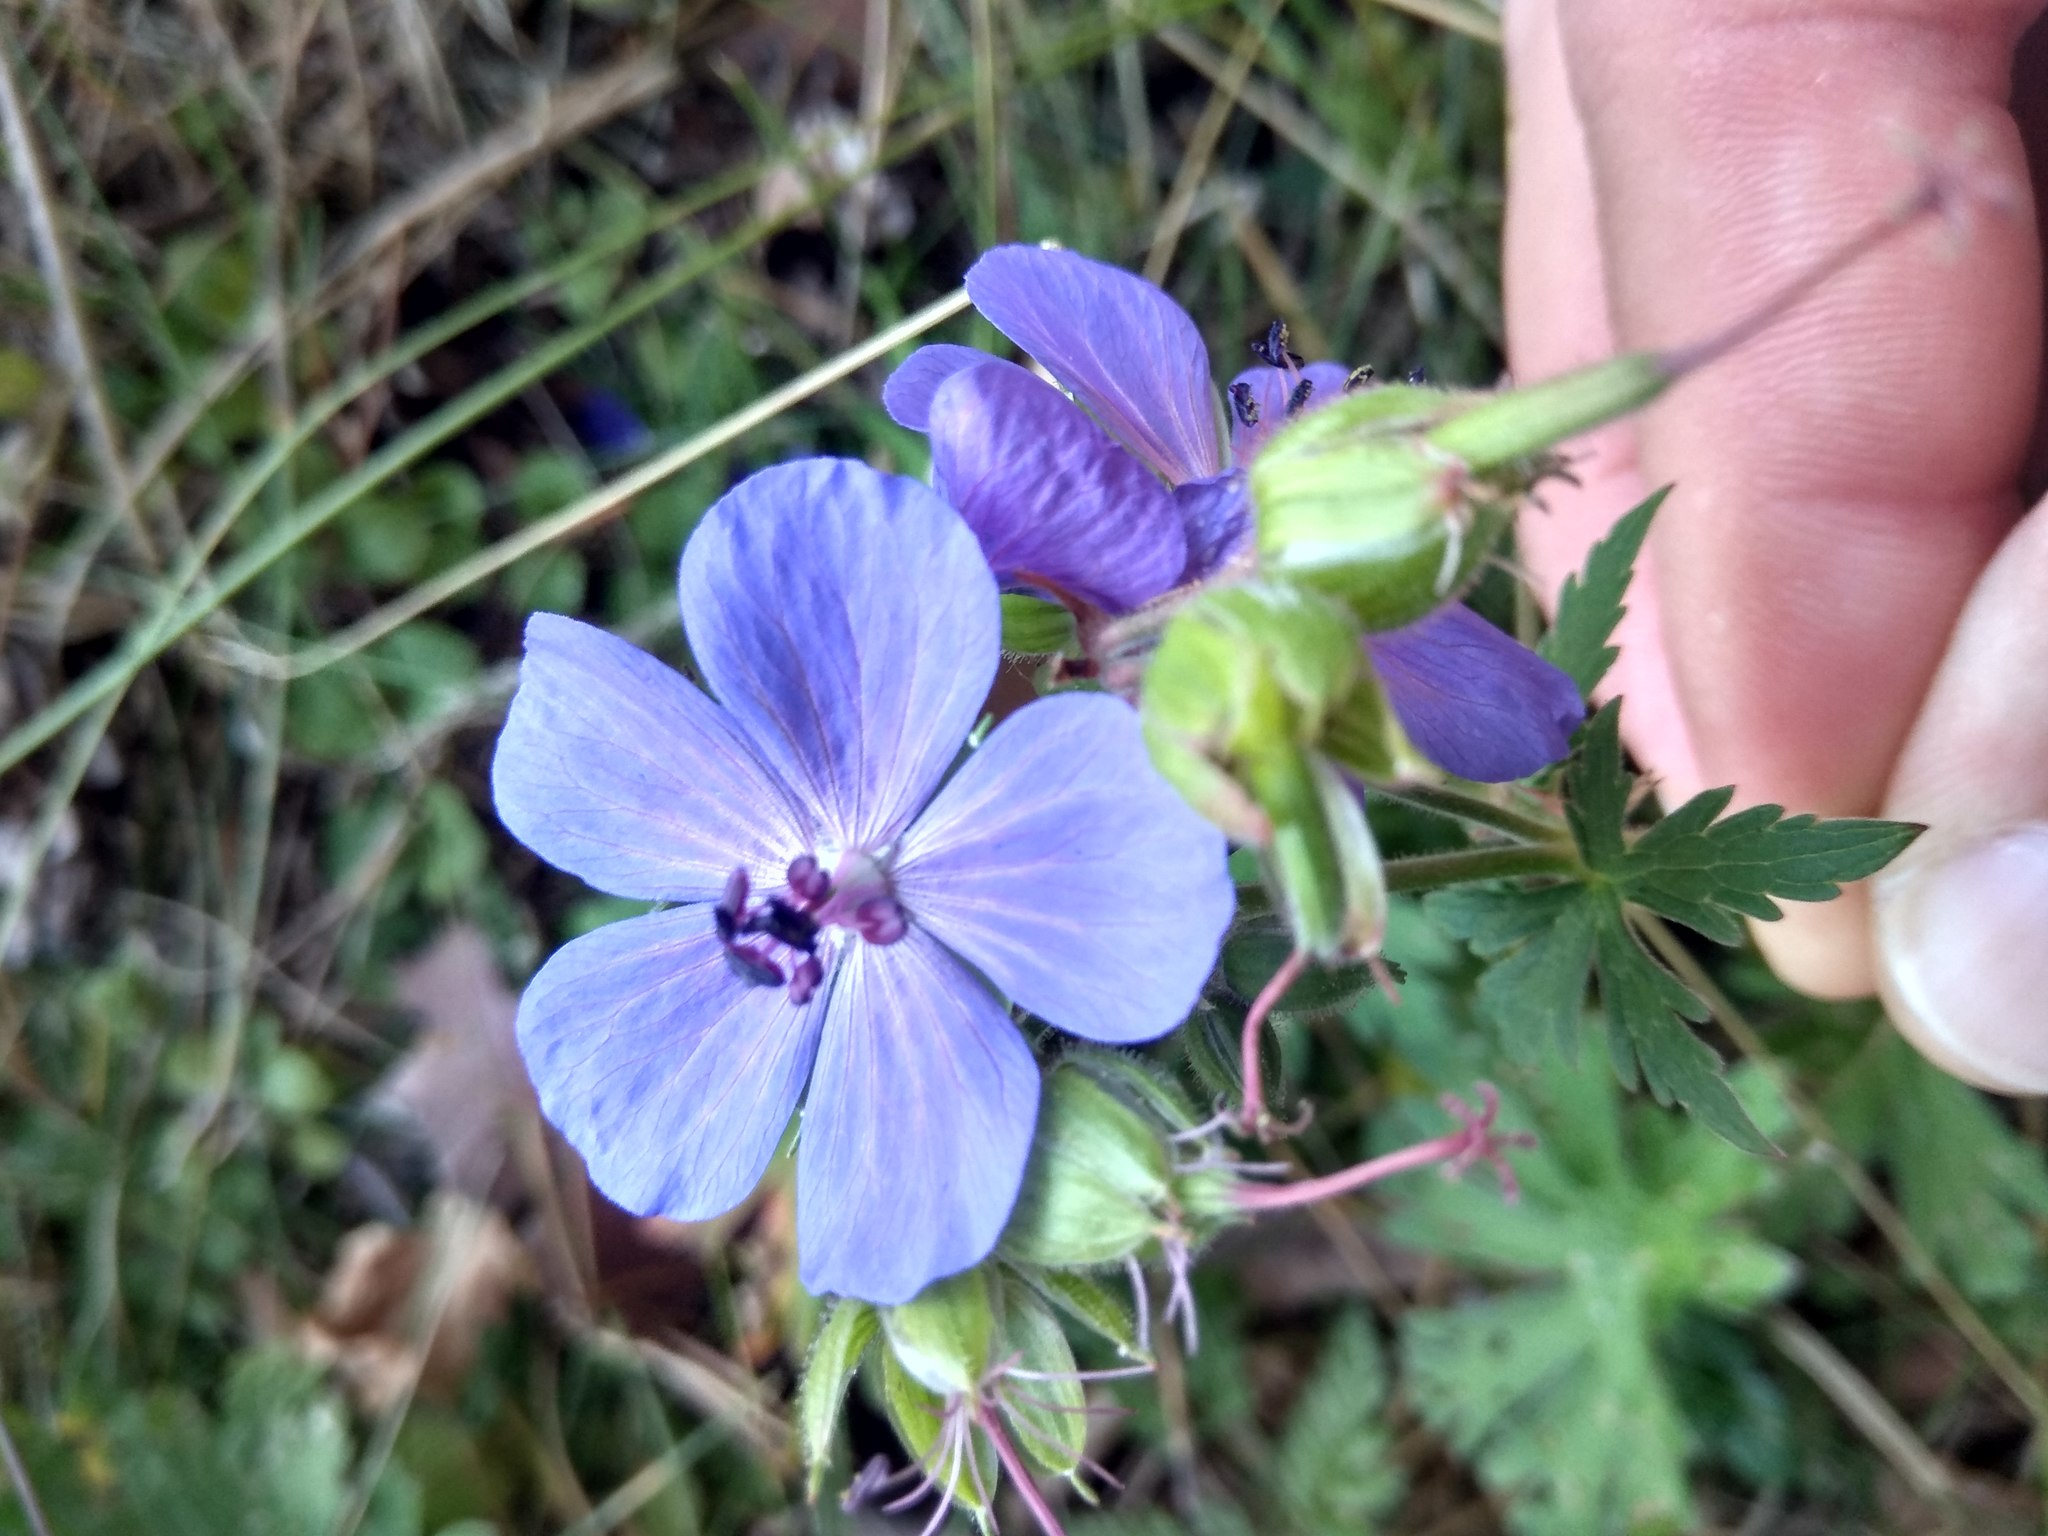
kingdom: Plantae
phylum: Tracheophyta
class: Magnoliopsida
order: Geraniales
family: Geraniaceae
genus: Geranium
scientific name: Geranium pratense
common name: Meadow crane's-bill
